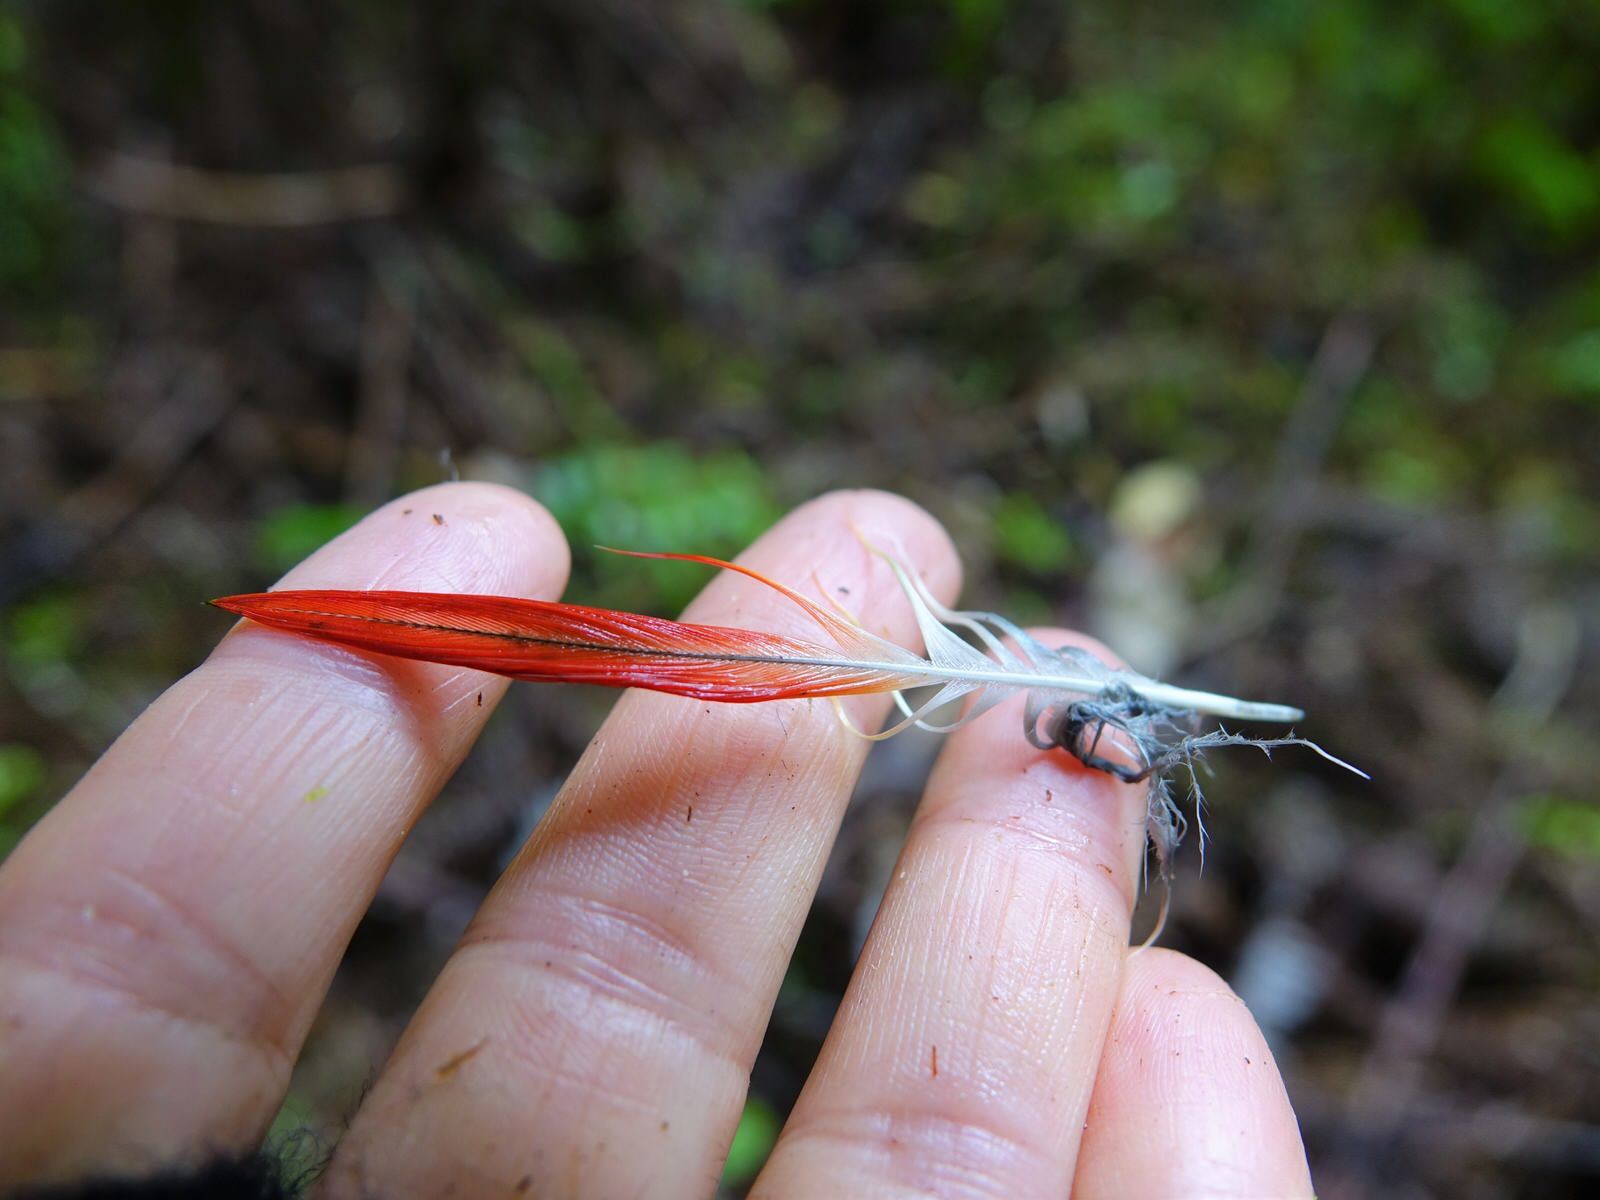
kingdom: Animalia
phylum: Chordata
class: Aves
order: Psittaciformes
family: Psittacidae
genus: Platycercus
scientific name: Platycercus eximius
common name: Eastern rosella
